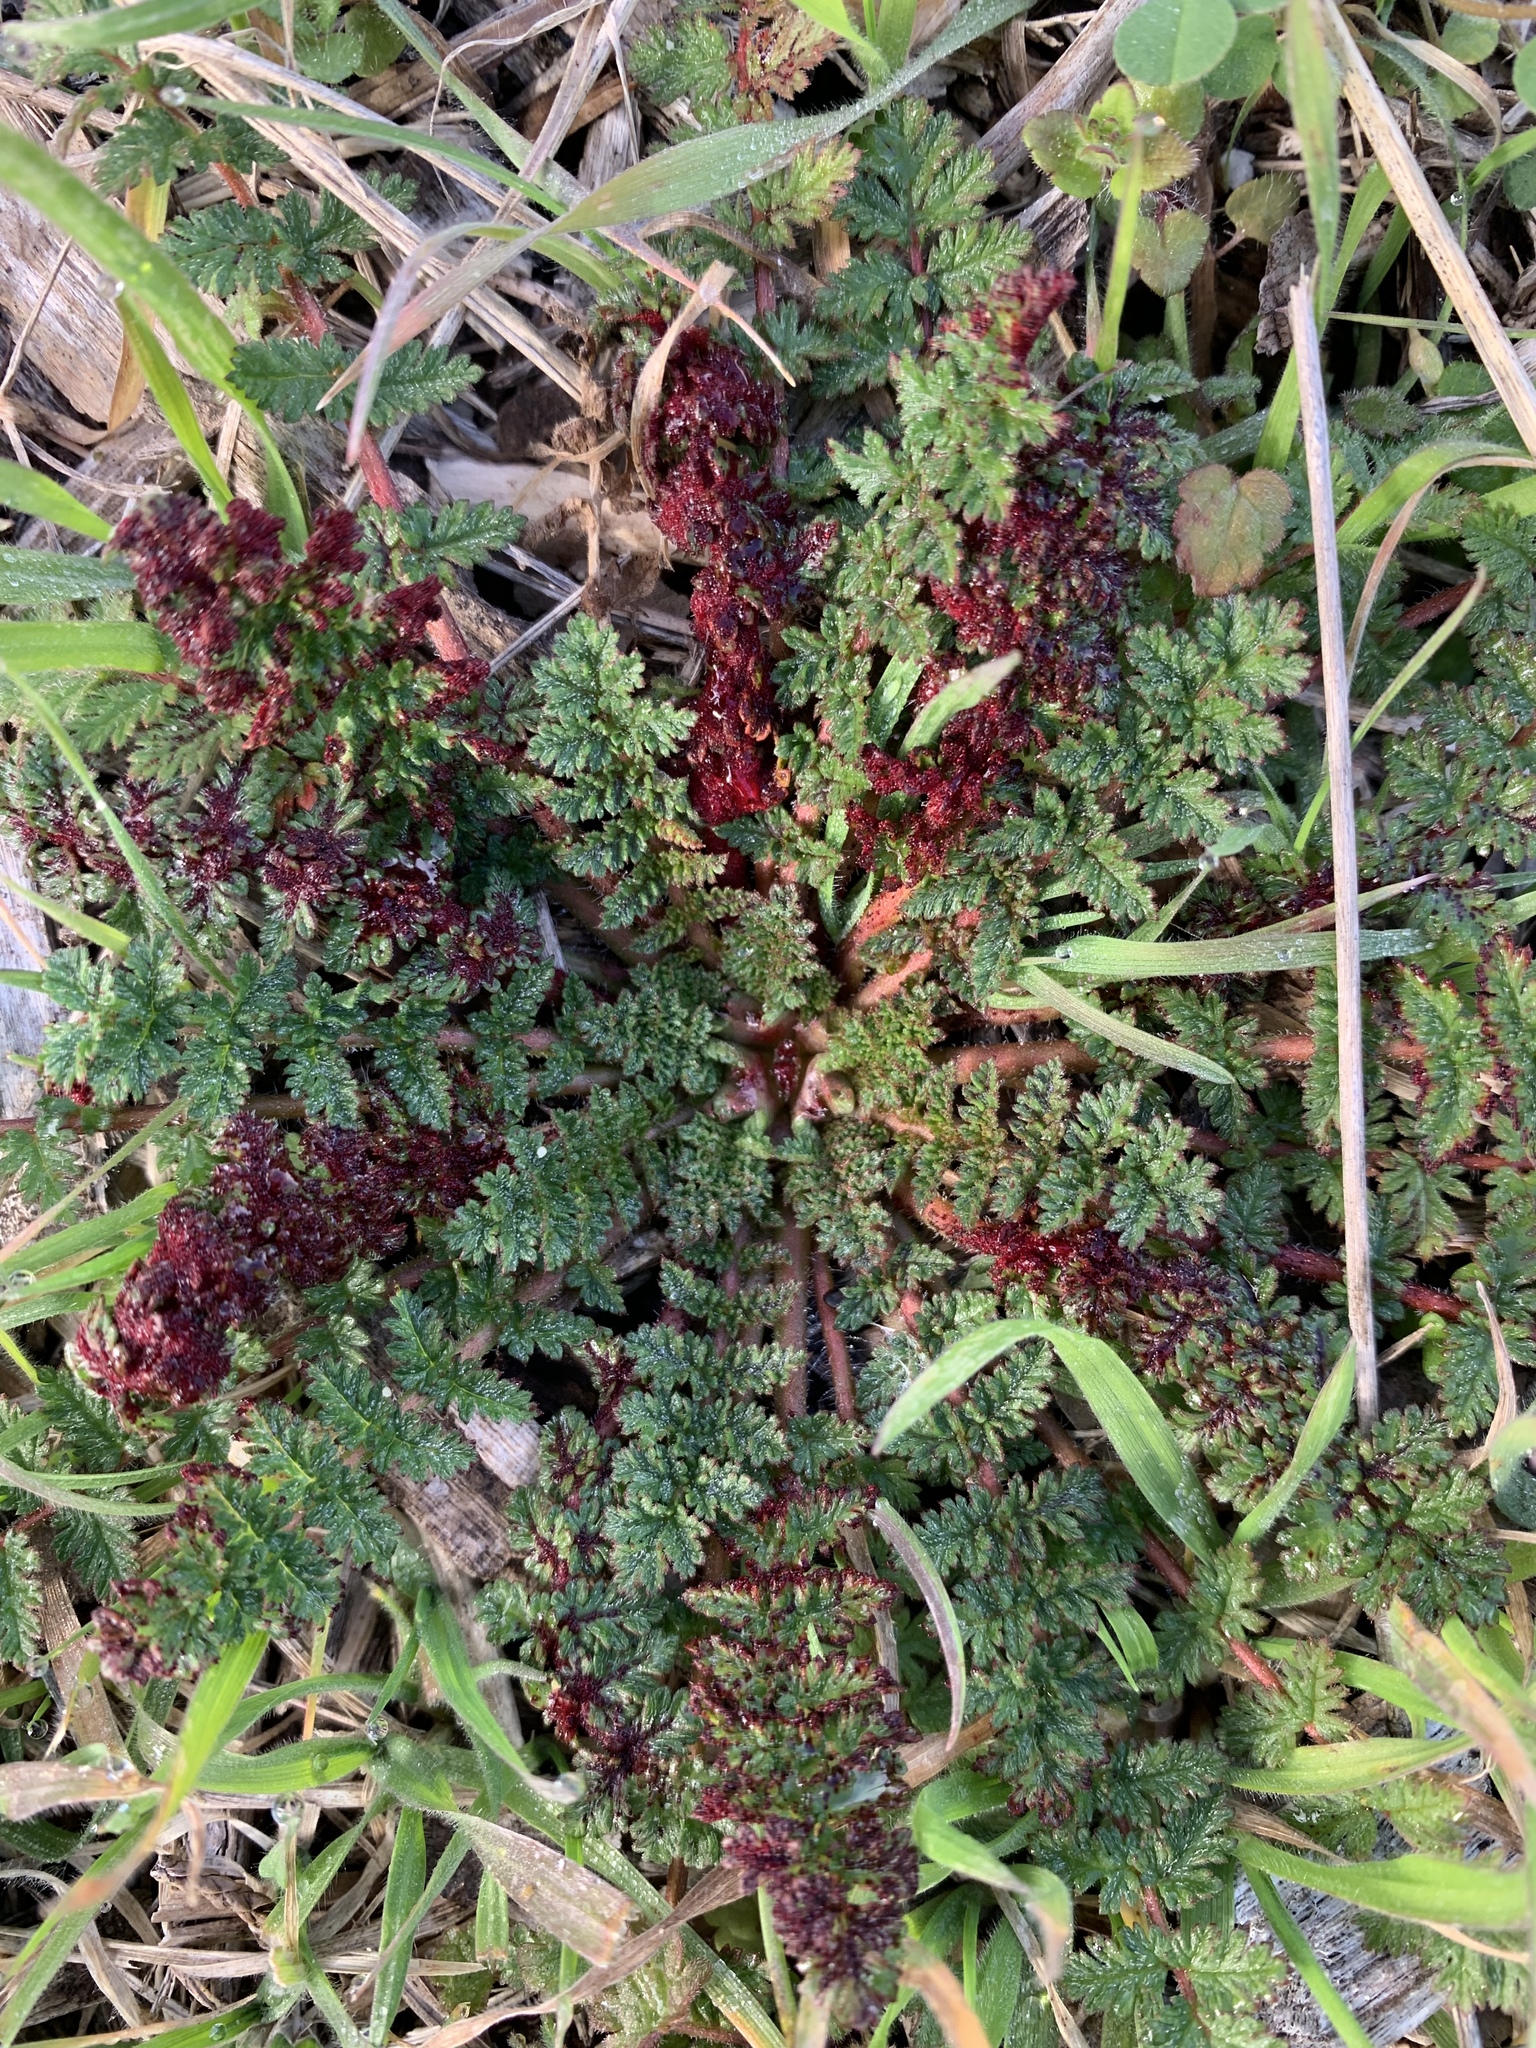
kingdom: Plantae
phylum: Tracheophyta
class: Magnoliopsida
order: Geraniales
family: Geraniaceae
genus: Erodium
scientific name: Erodium cicutarium
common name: Common stork's-bill
